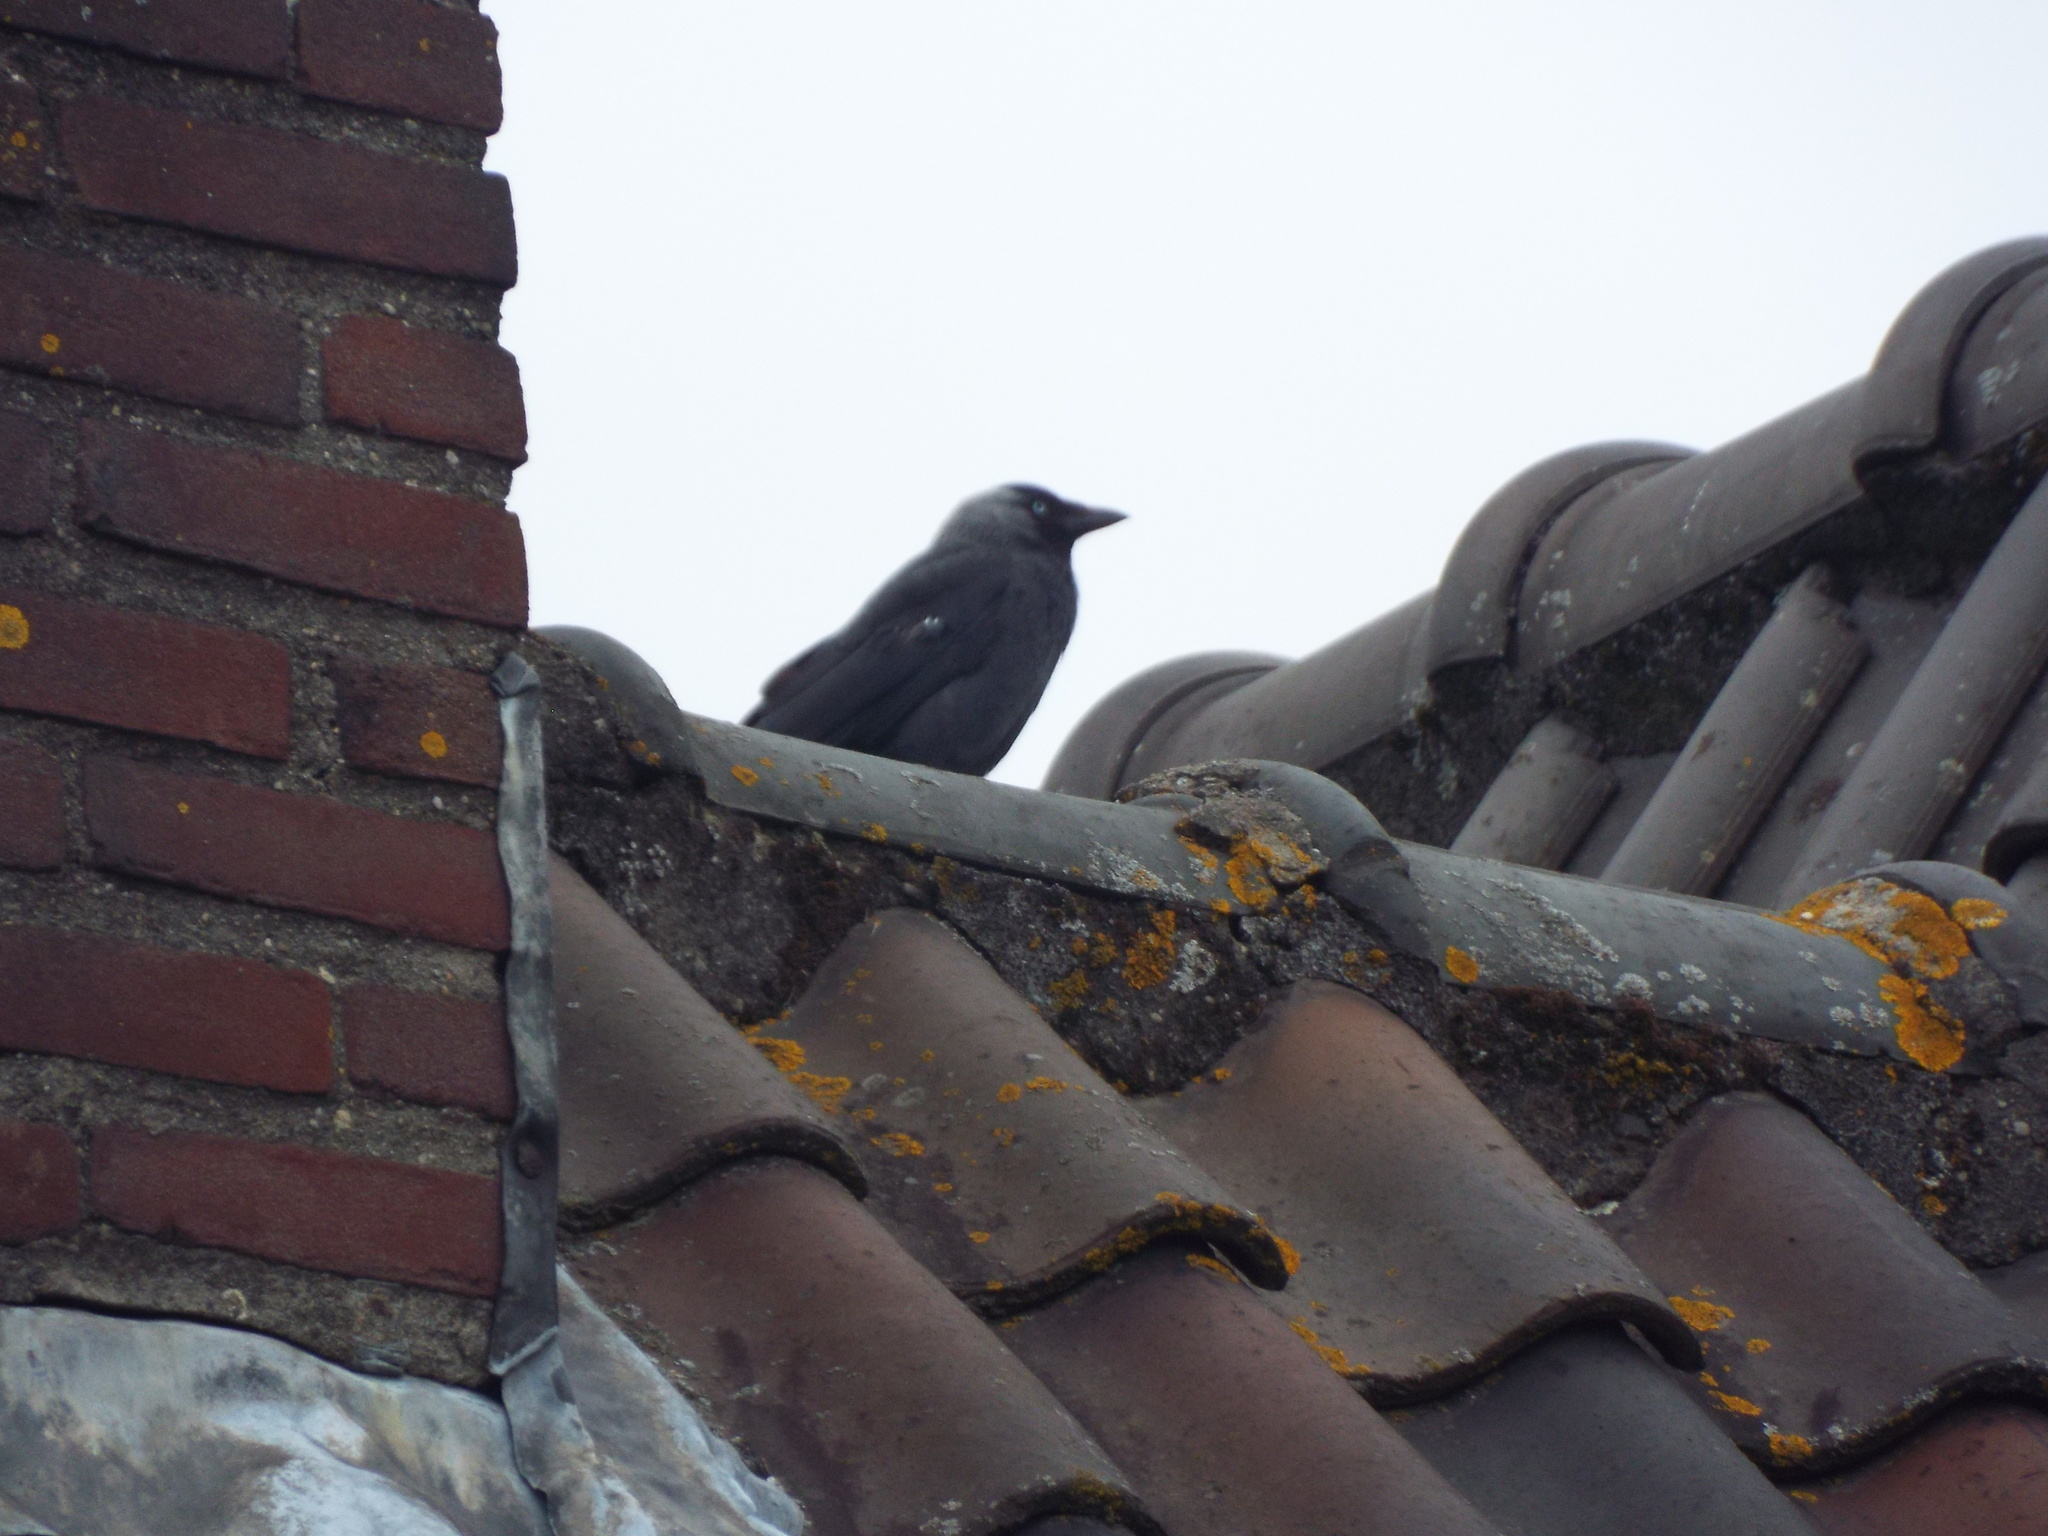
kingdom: Animalia
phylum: Chordata
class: Aves
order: Passeriformes
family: Corvidae
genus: Coloeus
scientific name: Coloeus monedula
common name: Western jackdaw
